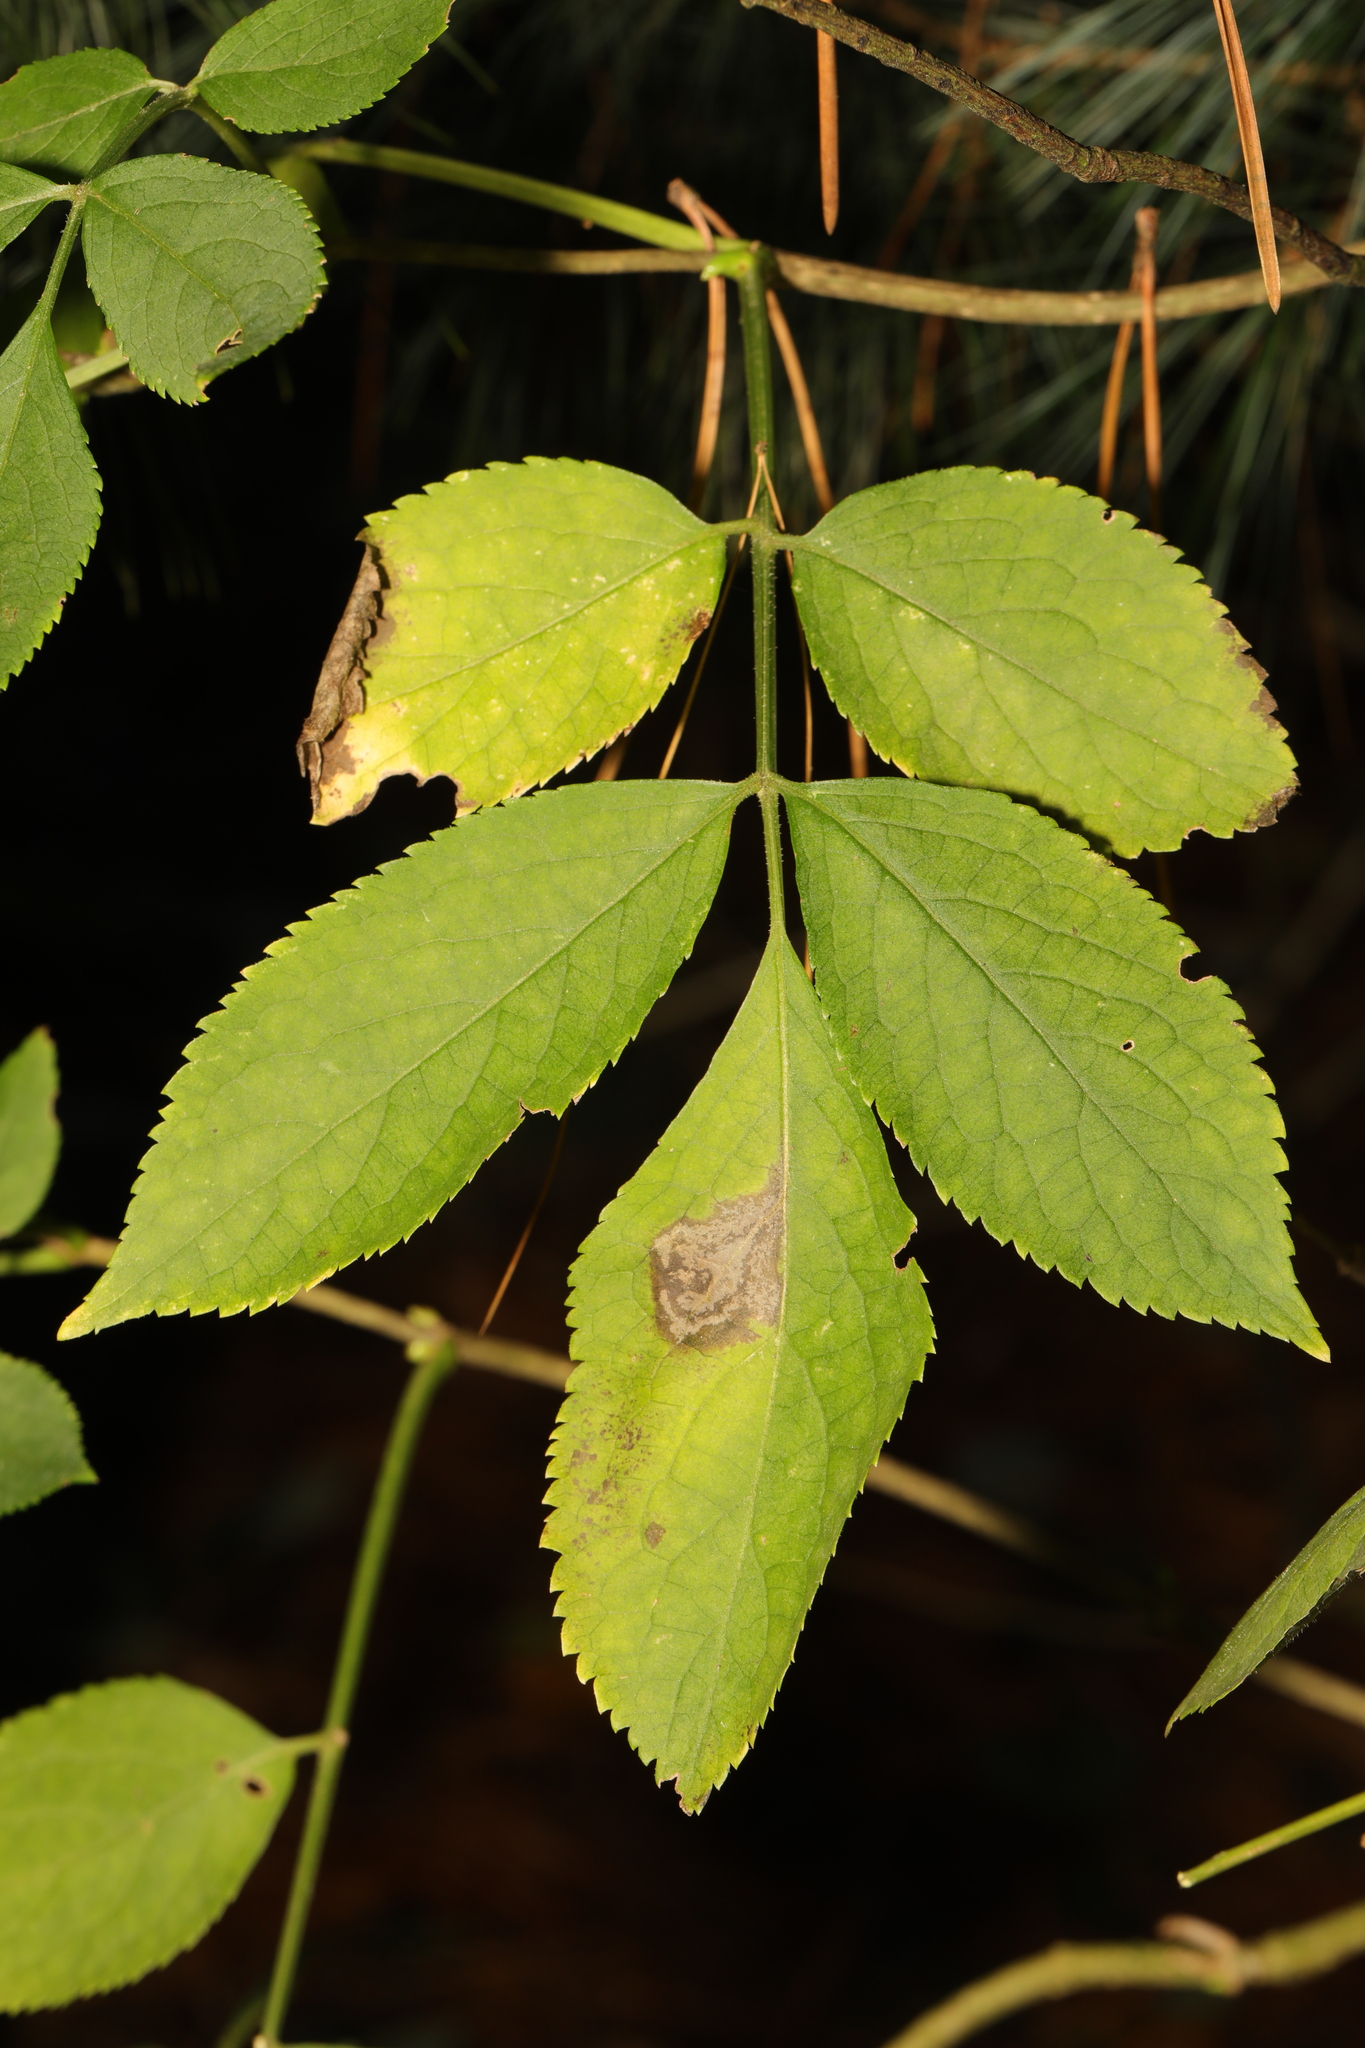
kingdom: Plantae
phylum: Tracheophyta
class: Magnoliopsida
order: Dipsacales
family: Viburnaceae
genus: Sambucus
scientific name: Sambucus nigra
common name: Elder
